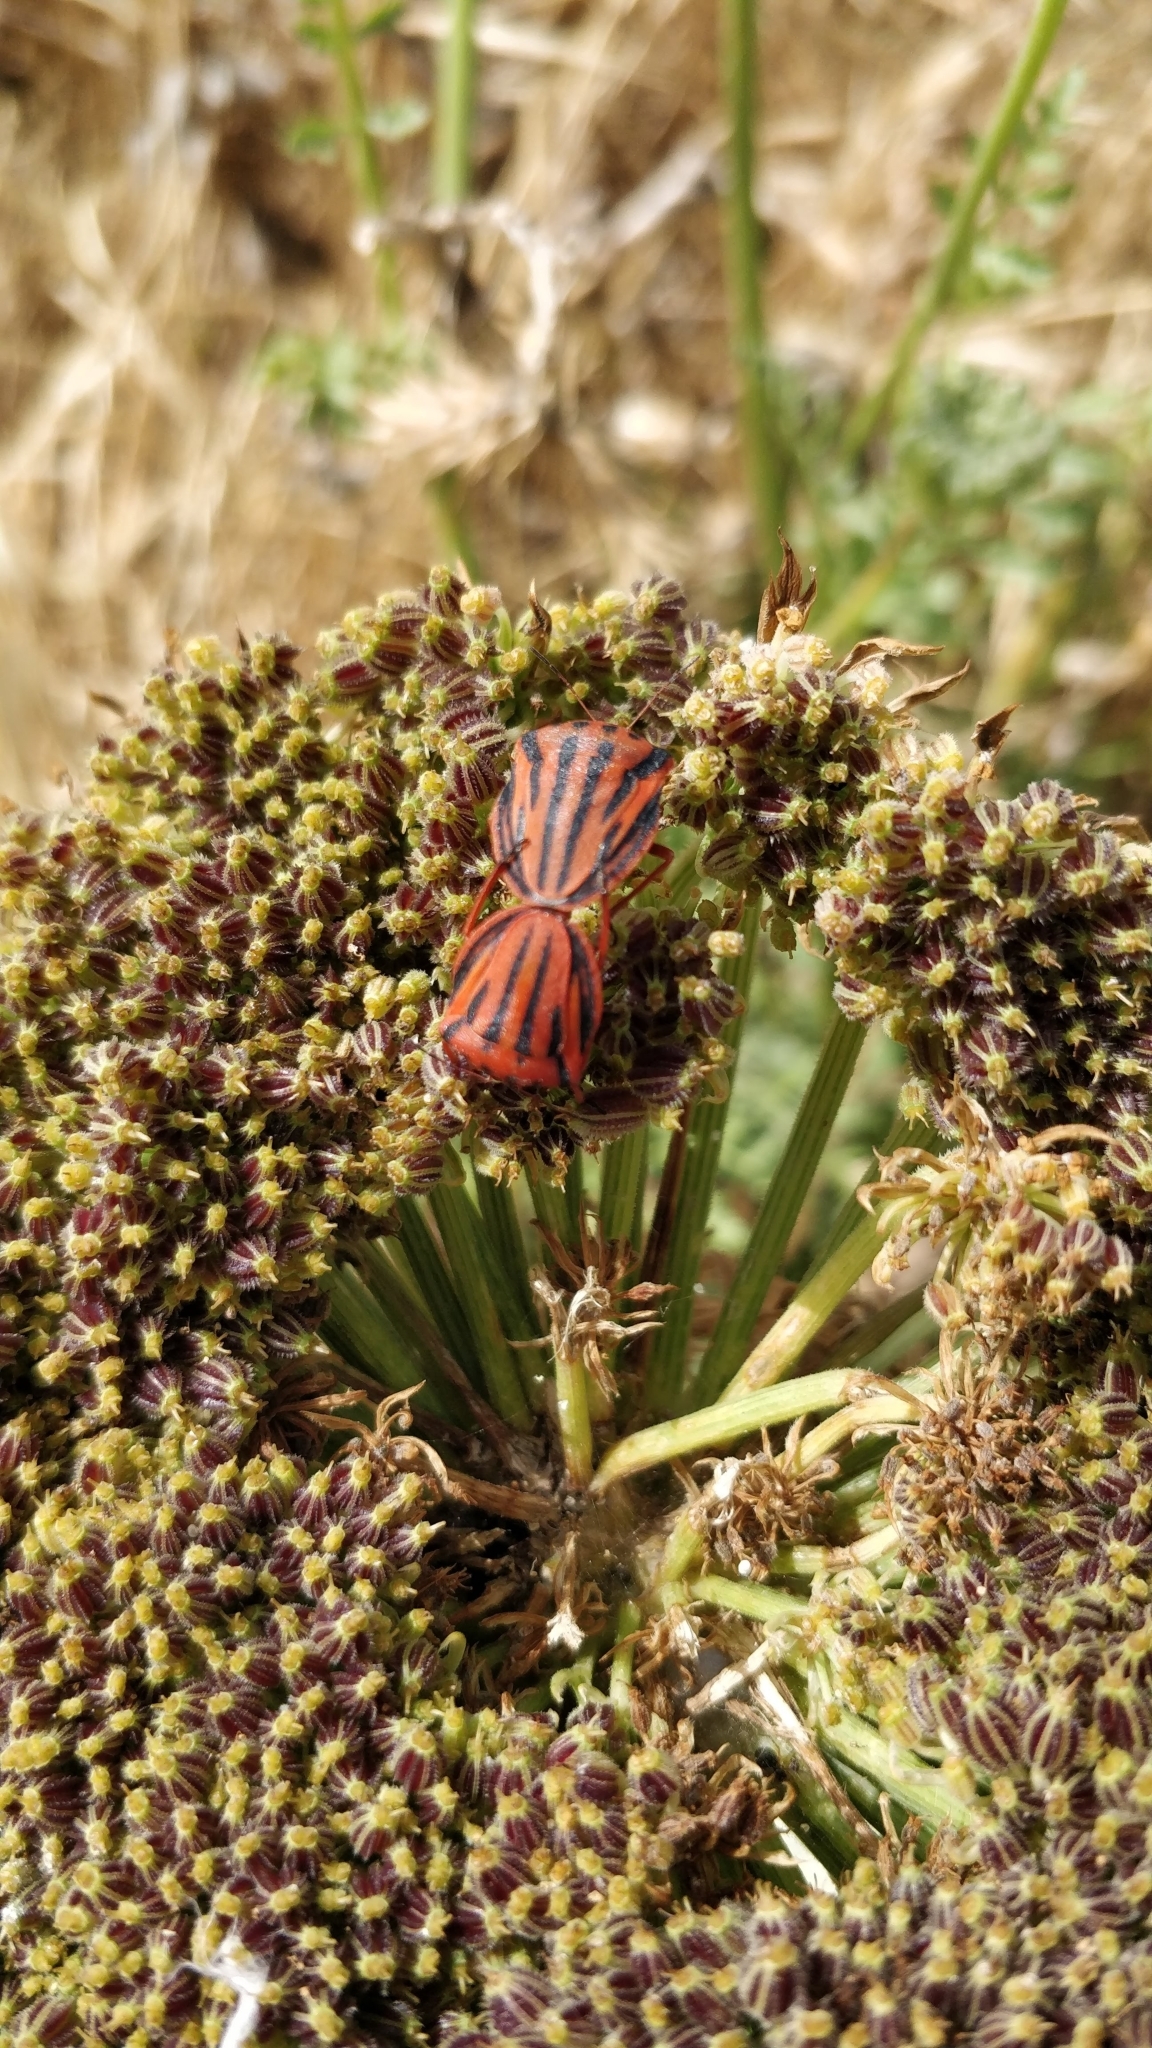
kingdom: Animalia
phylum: Arthropoda
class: Insecta
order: Hemiptera
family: Pentatomidae
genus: Graphosoma
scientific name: Graphosoma semipunctatum
